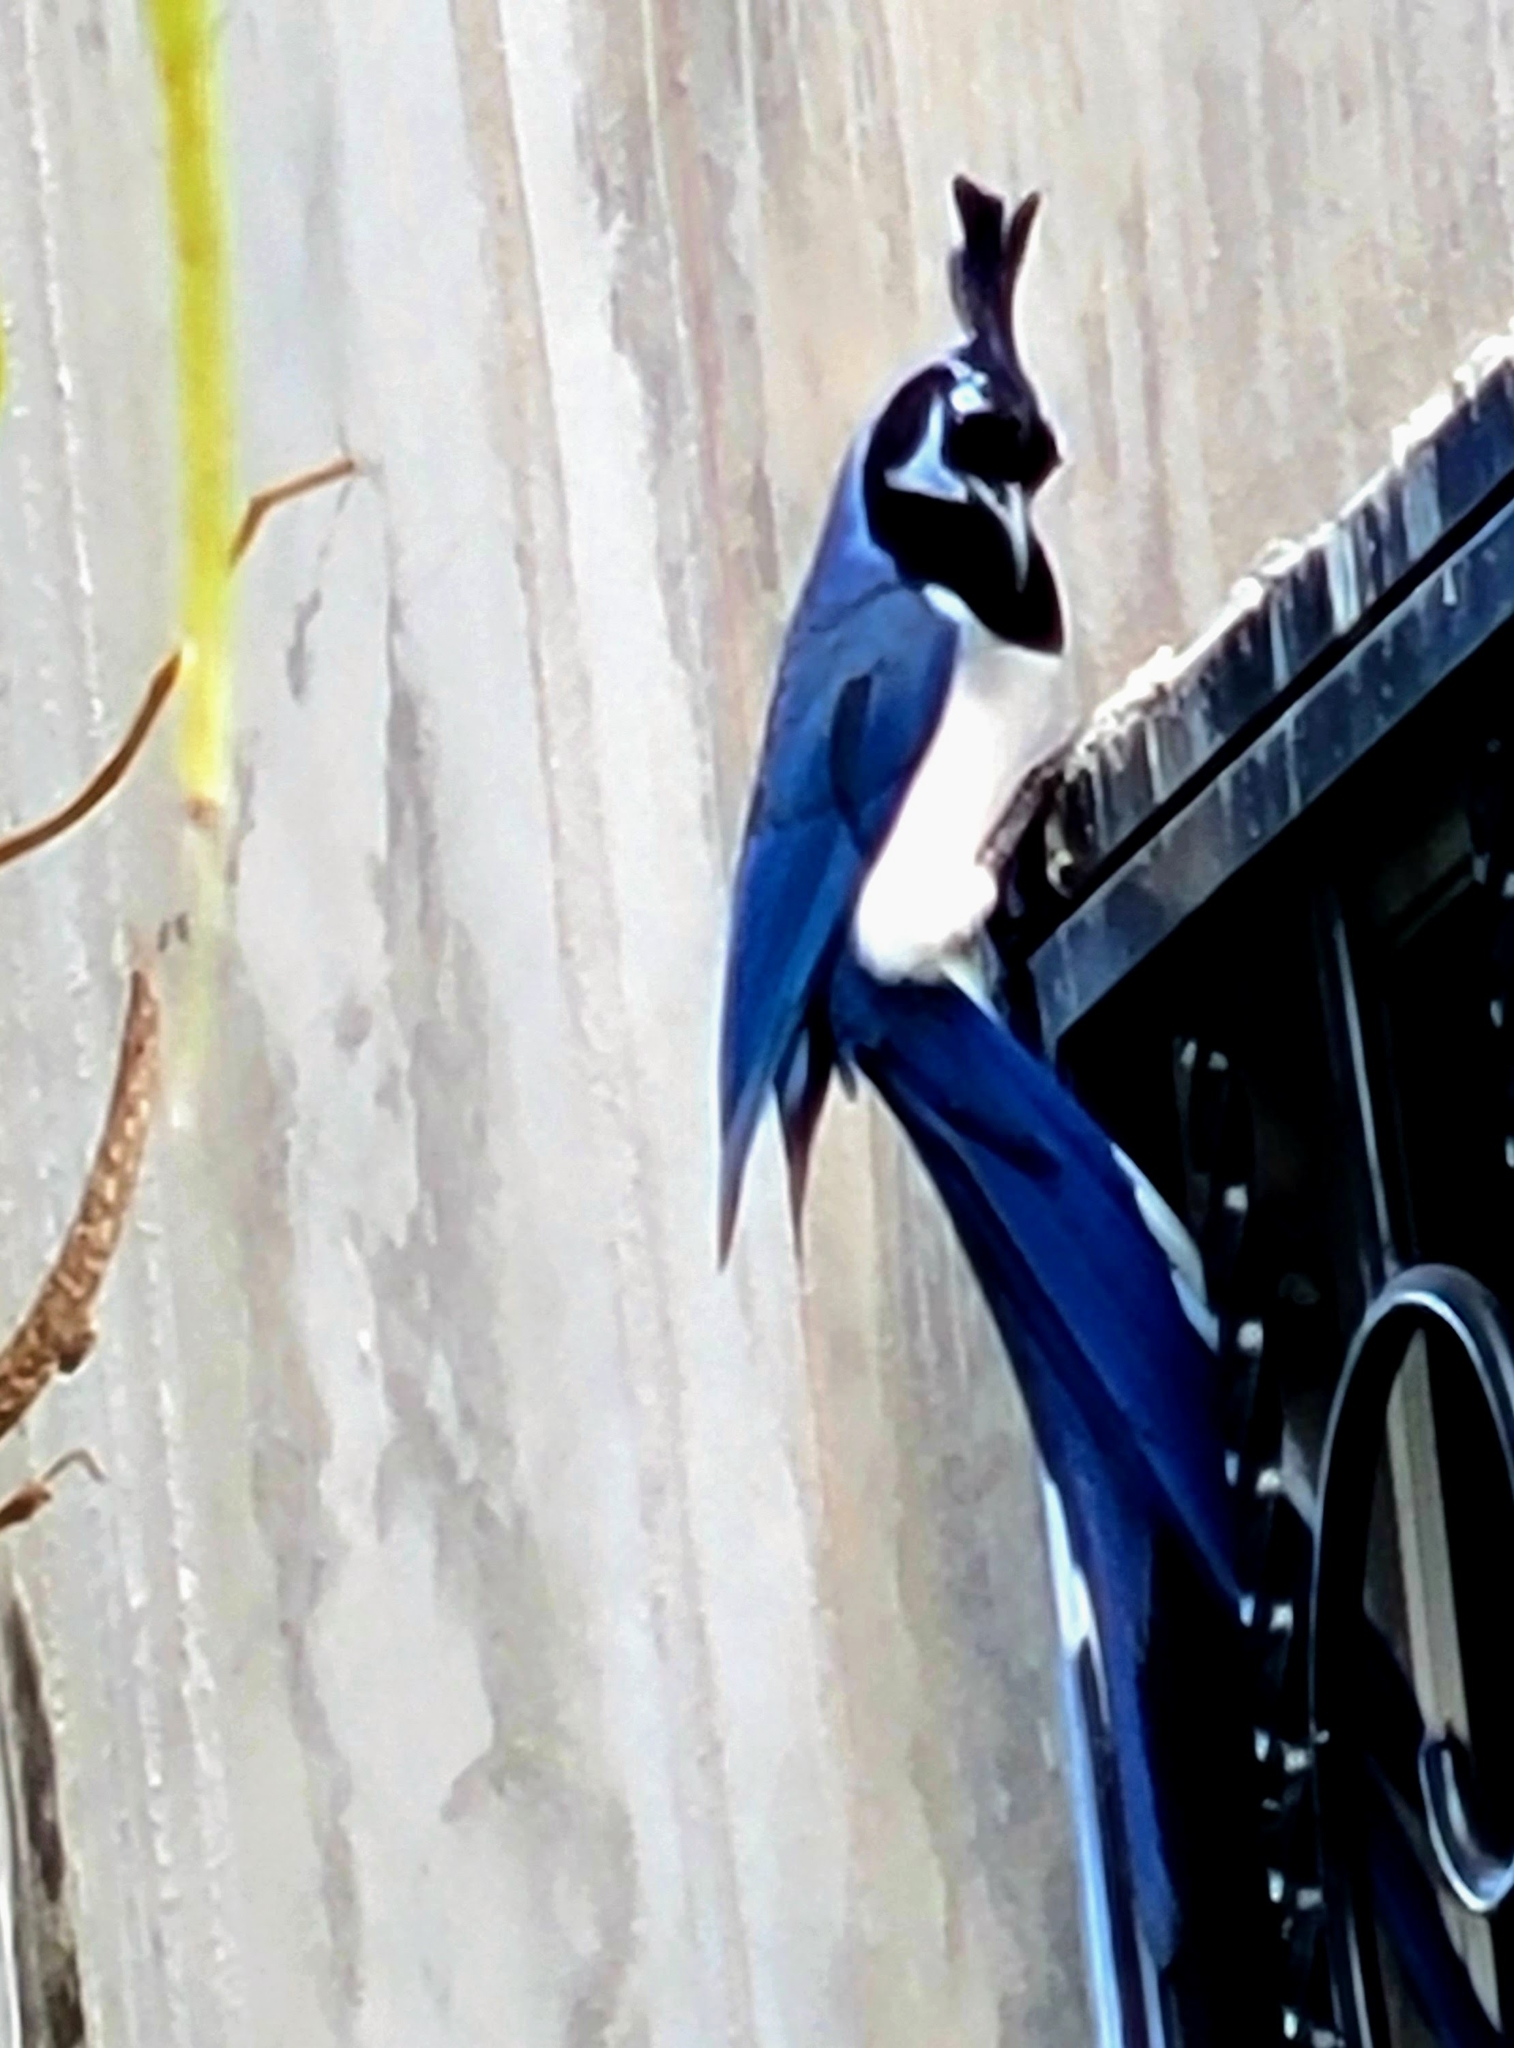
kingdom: Animalia
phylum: Chordata
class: Aves
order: Passeriformes
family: Corvidae
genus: Calocitta
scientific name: Calocitta colliei
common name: Black-throated magpie-jay
